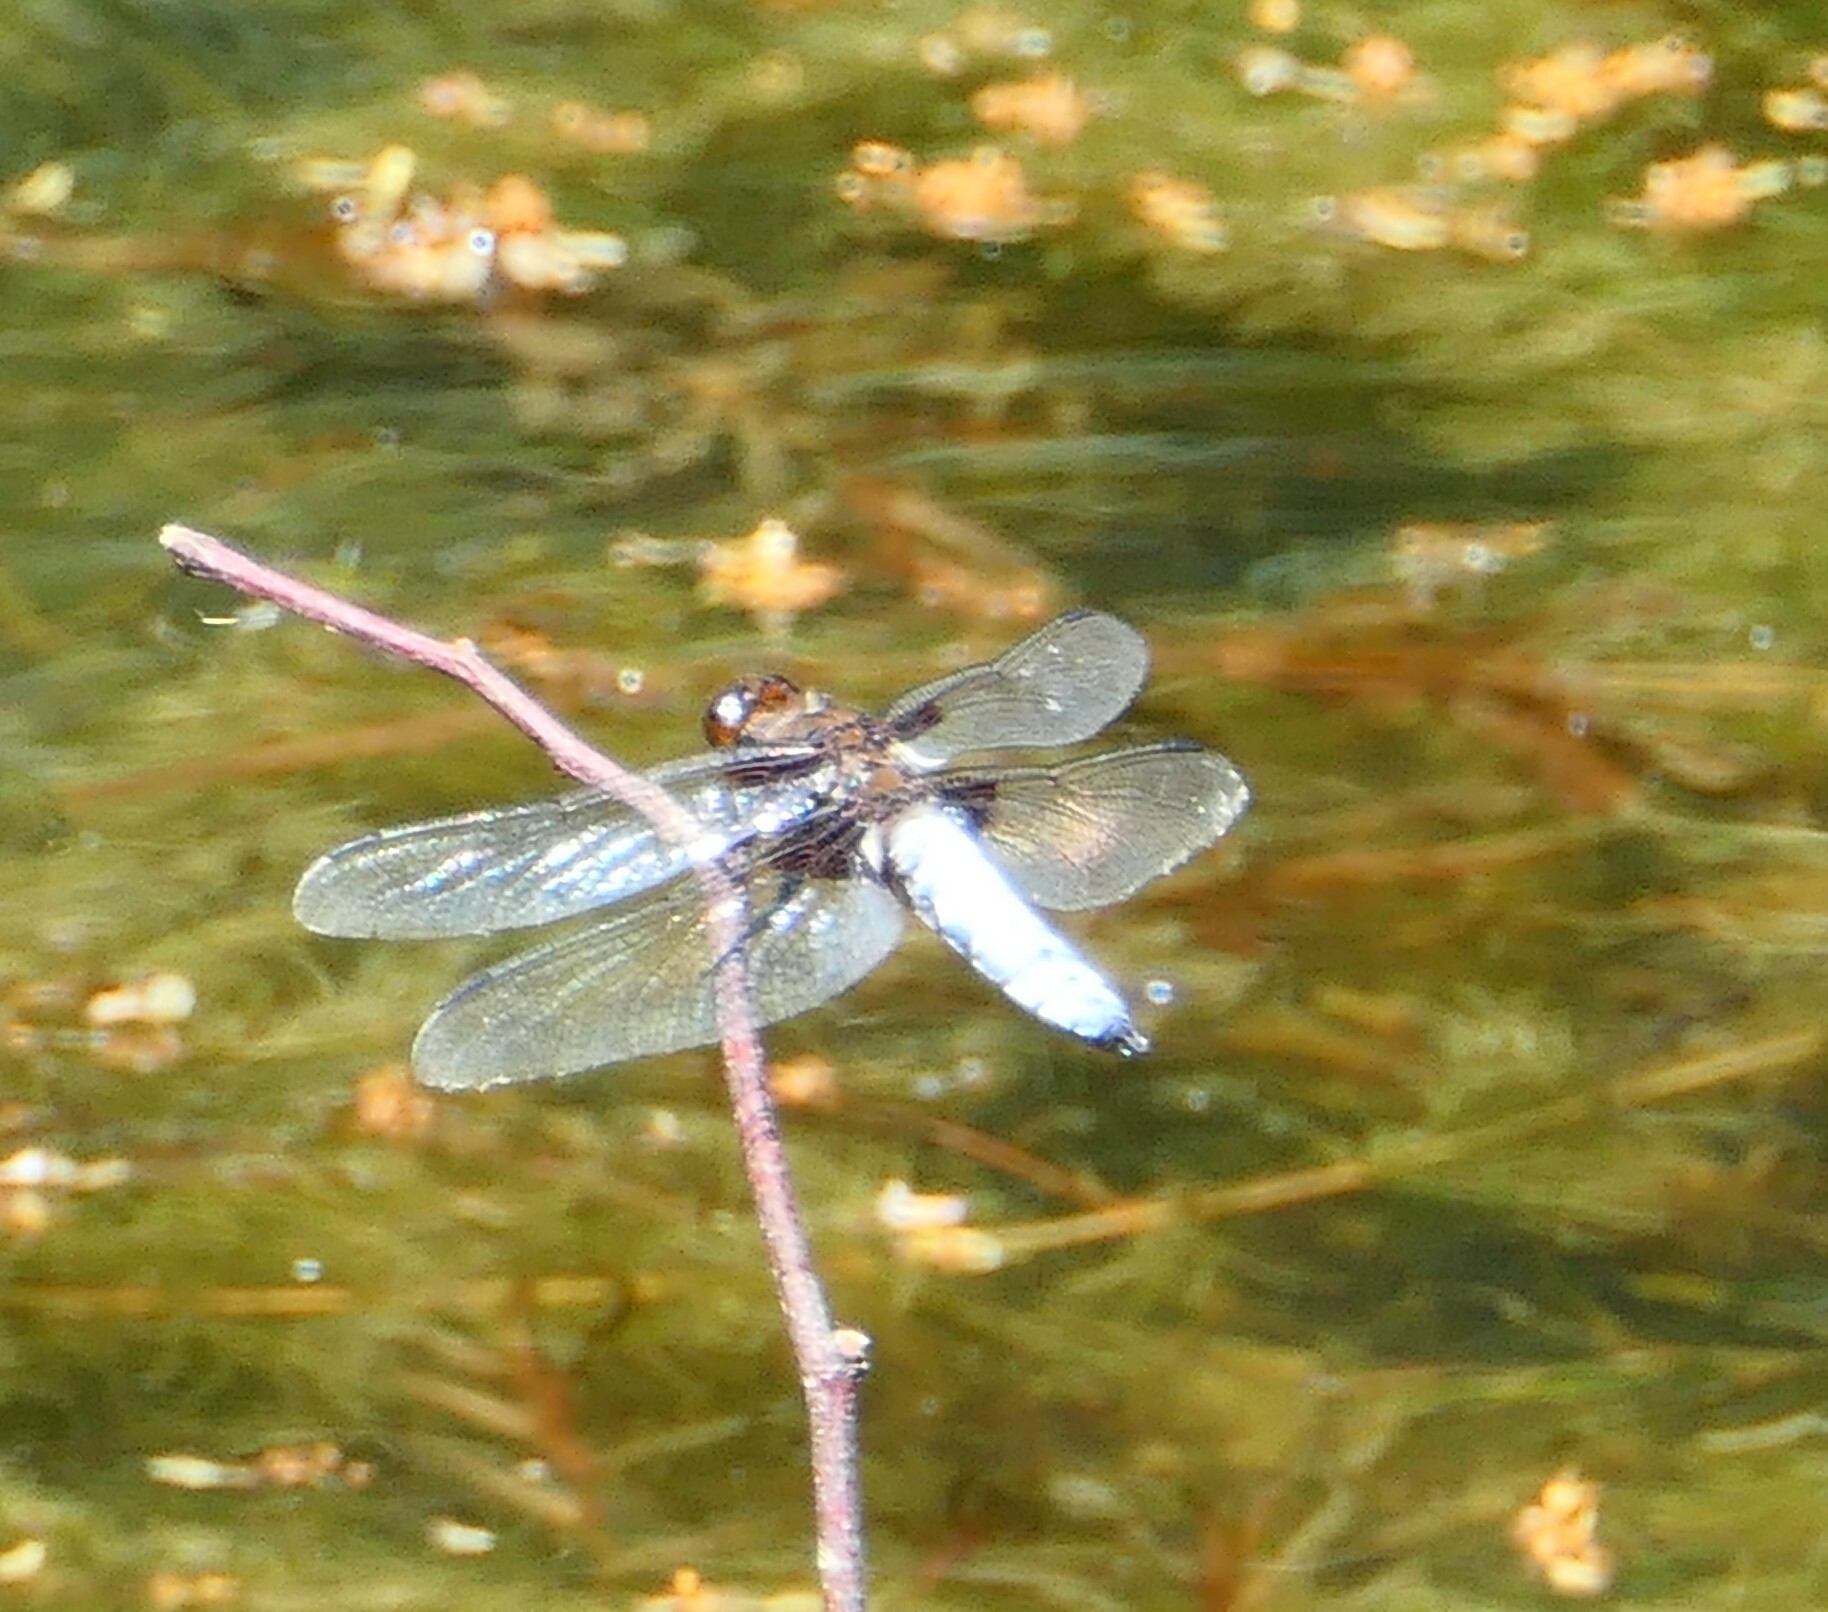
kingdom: Animalia
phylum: Arthropoda
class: Insecta
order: Odonata
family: Libellulidae
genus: Libellula
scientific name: Libellula depressa
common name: Broad-bodied chaser
